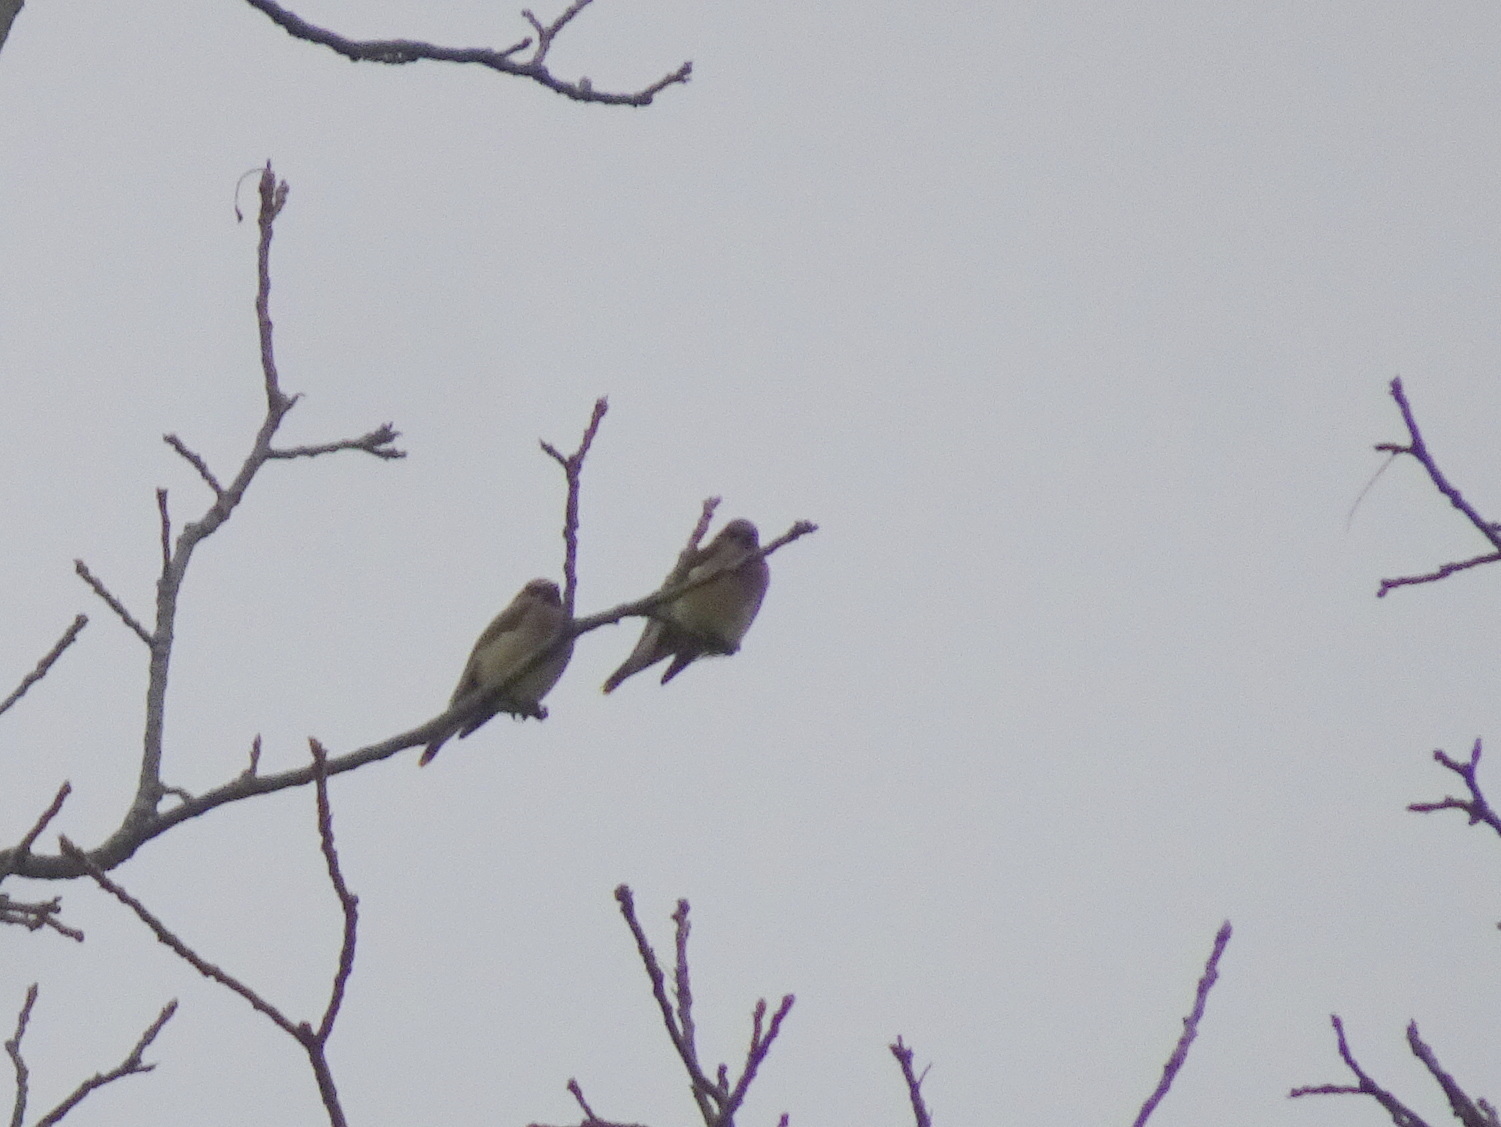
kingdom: Animalia
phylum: Chordata
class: Aves
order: Passeriformes
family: Bombycillidae
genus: Bombycilla
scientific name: Bombycilla cedrorum
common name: Cedar waxwing
